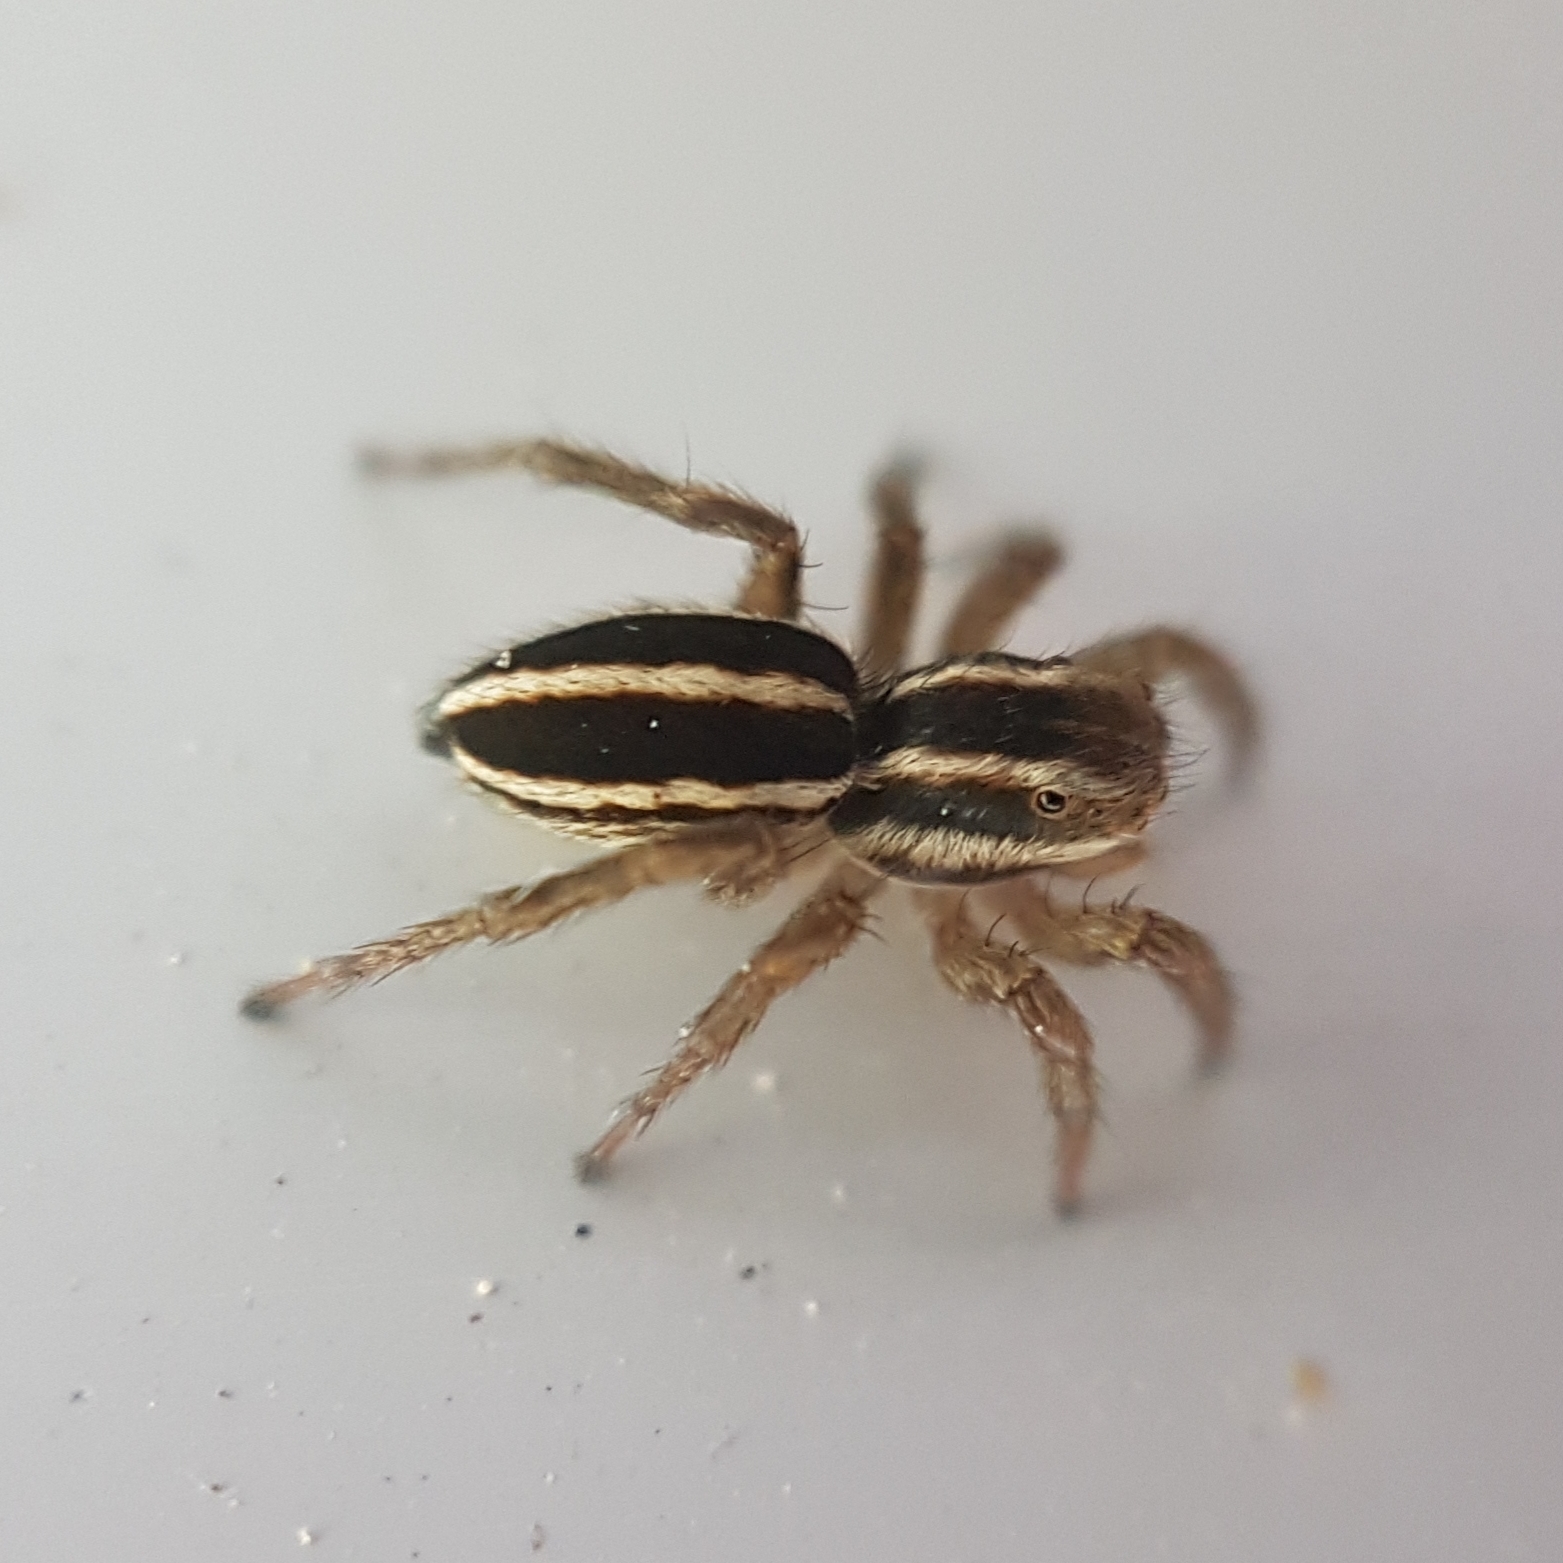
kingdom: Animalia
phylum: Arthropoda
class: Arachnida
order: Araneae
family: Salticidae
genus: Phlegra
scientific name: Phlegra bresnieri
